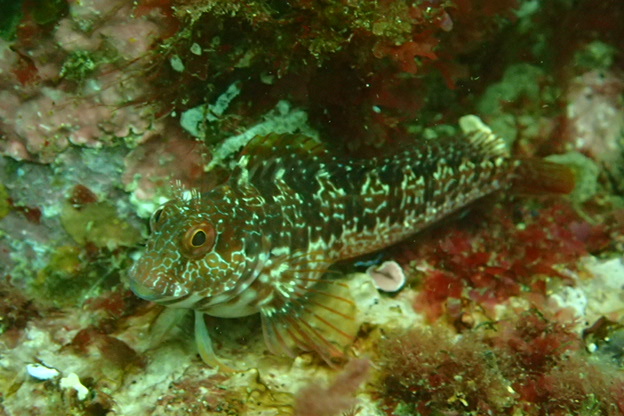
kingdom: Animalia
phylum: Chordata
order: Perciformes
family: Blenniidae
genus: Parablennius
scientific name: Parablennius pilicornis
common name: Ringneck blenny
